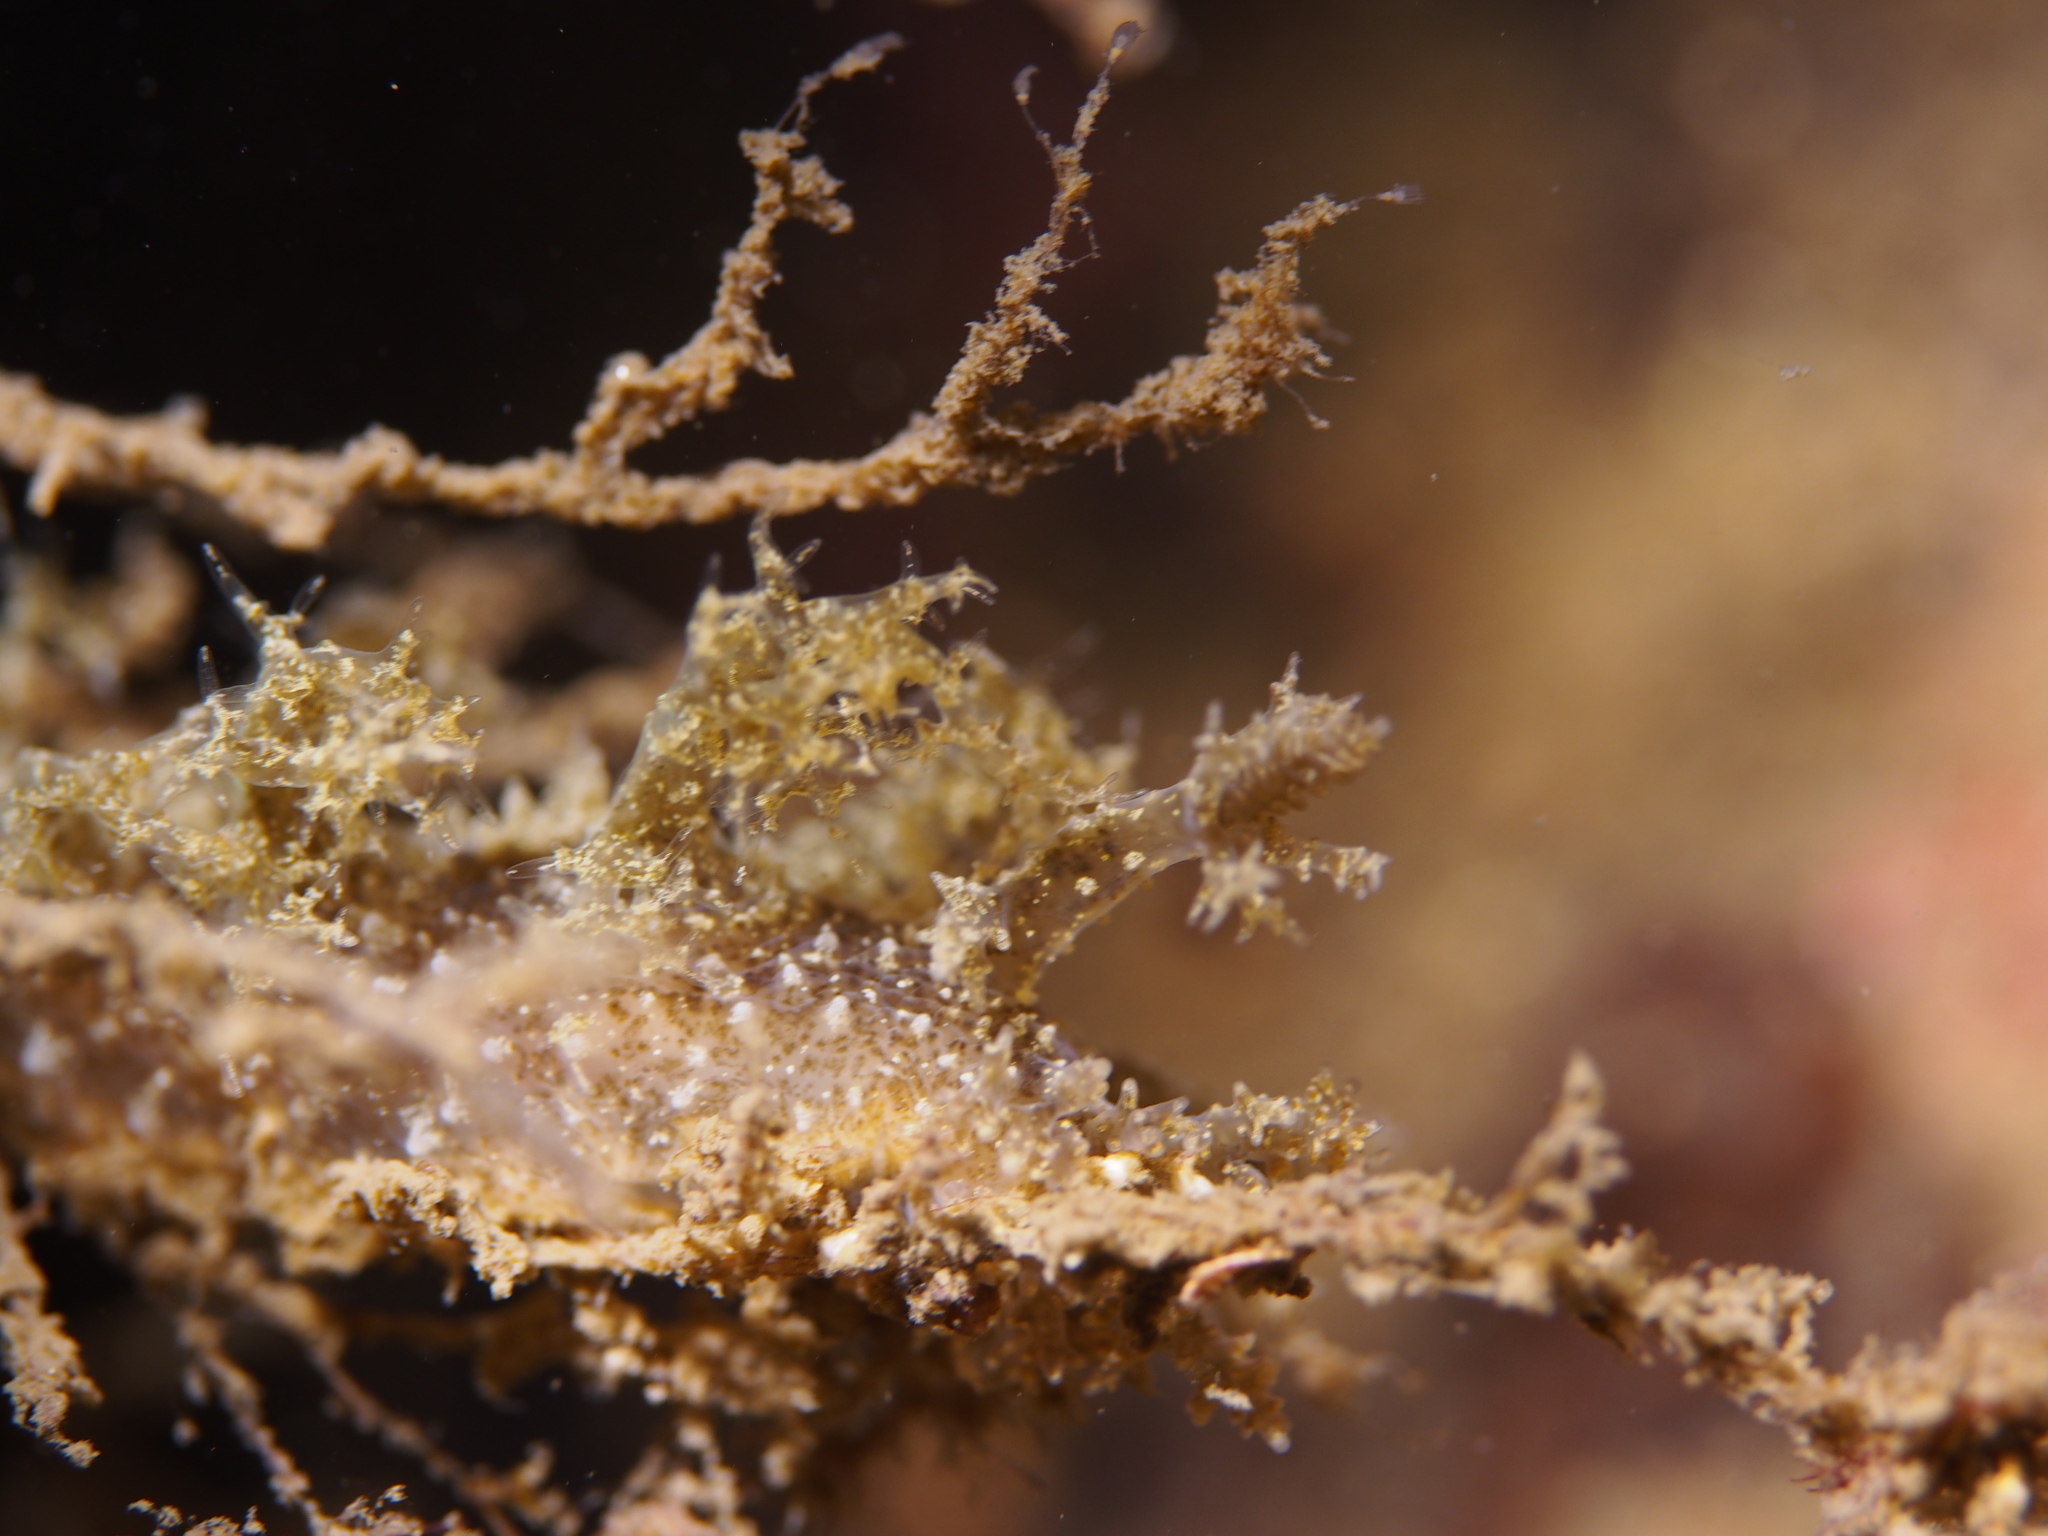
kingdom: Animalia
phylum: Mollusca
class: Gastropoda
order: Nudibranchia
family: Dendronotidae
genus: Dendronotus
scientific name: Dendronotus frondosus
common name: Bushy-backed nudibranch
